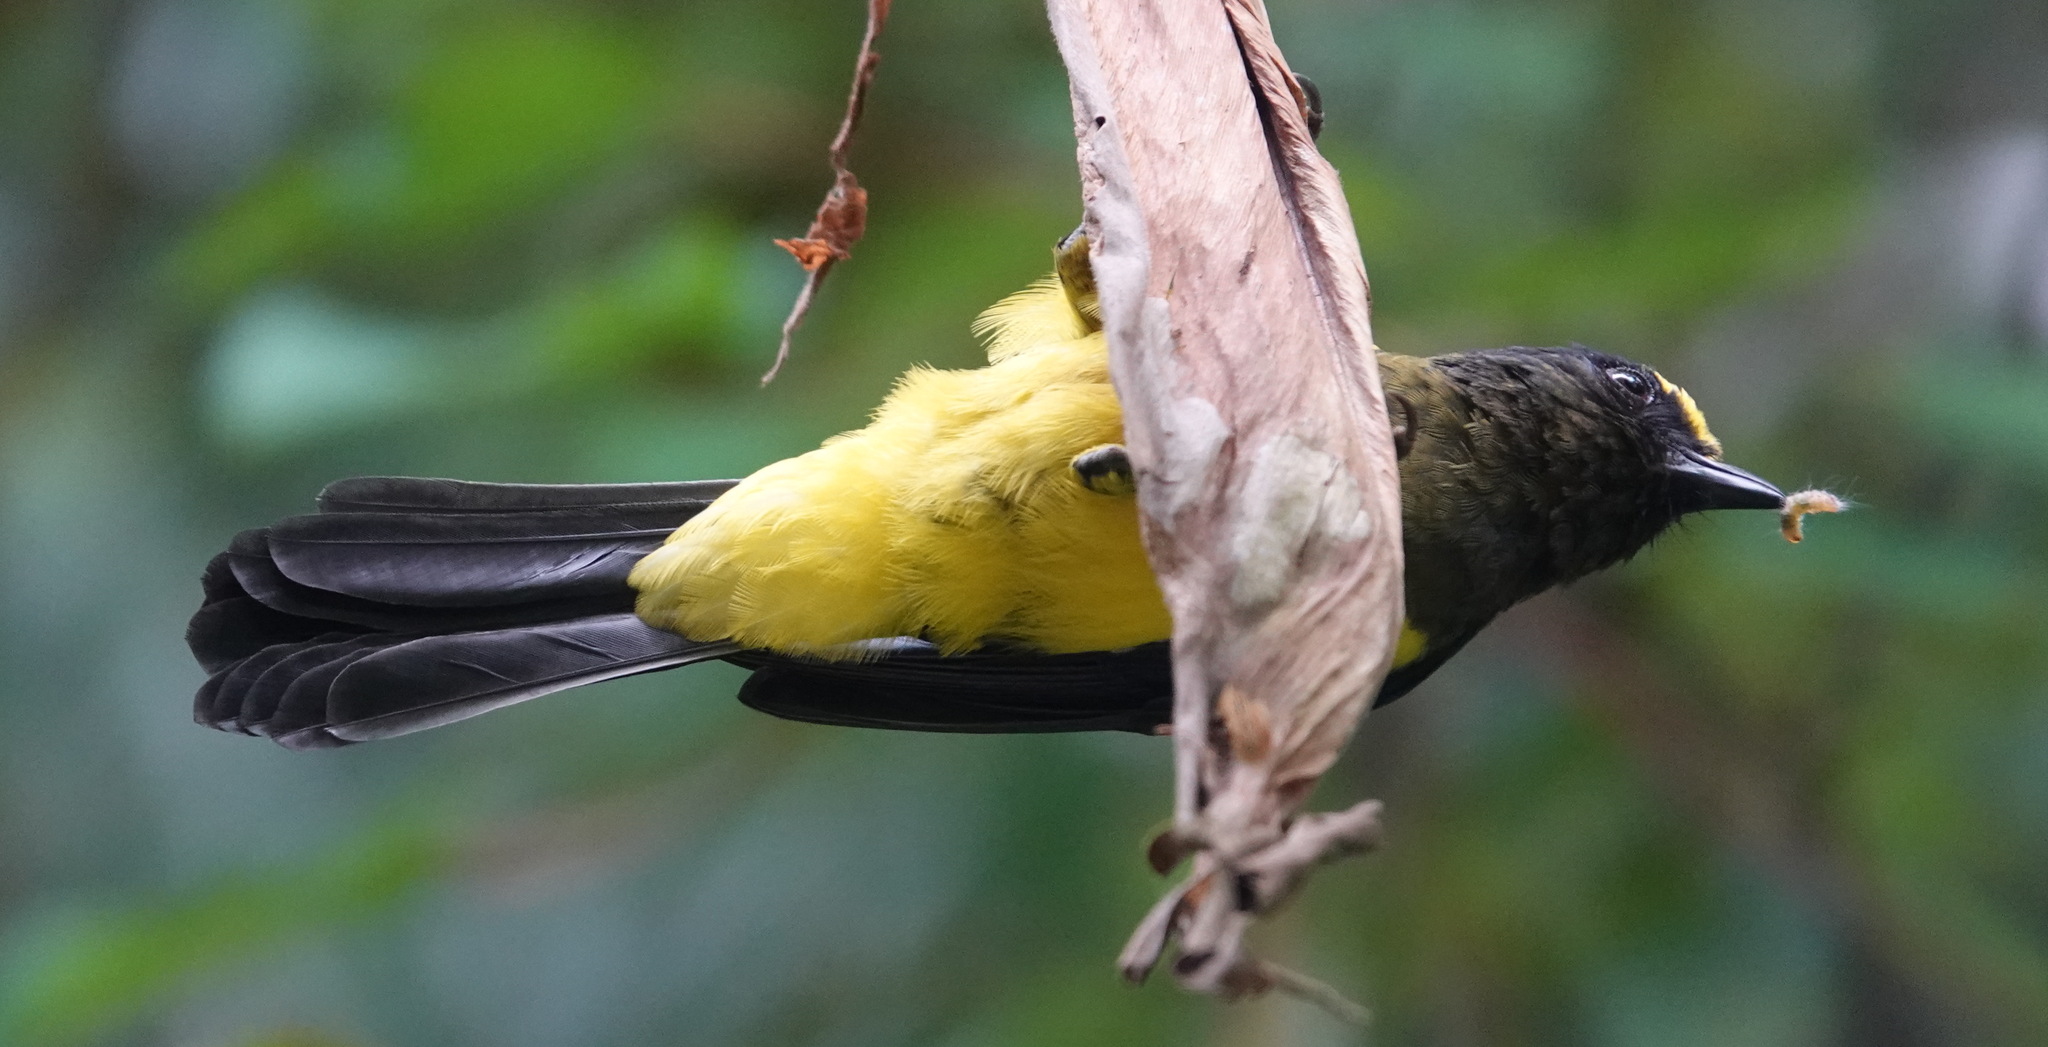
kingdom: Animalia
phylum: Chordata
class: Aves
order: Passeriformes
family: Paridae
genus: Melanochlora
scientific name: Melanochlora sultanea
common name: Sultan tit
